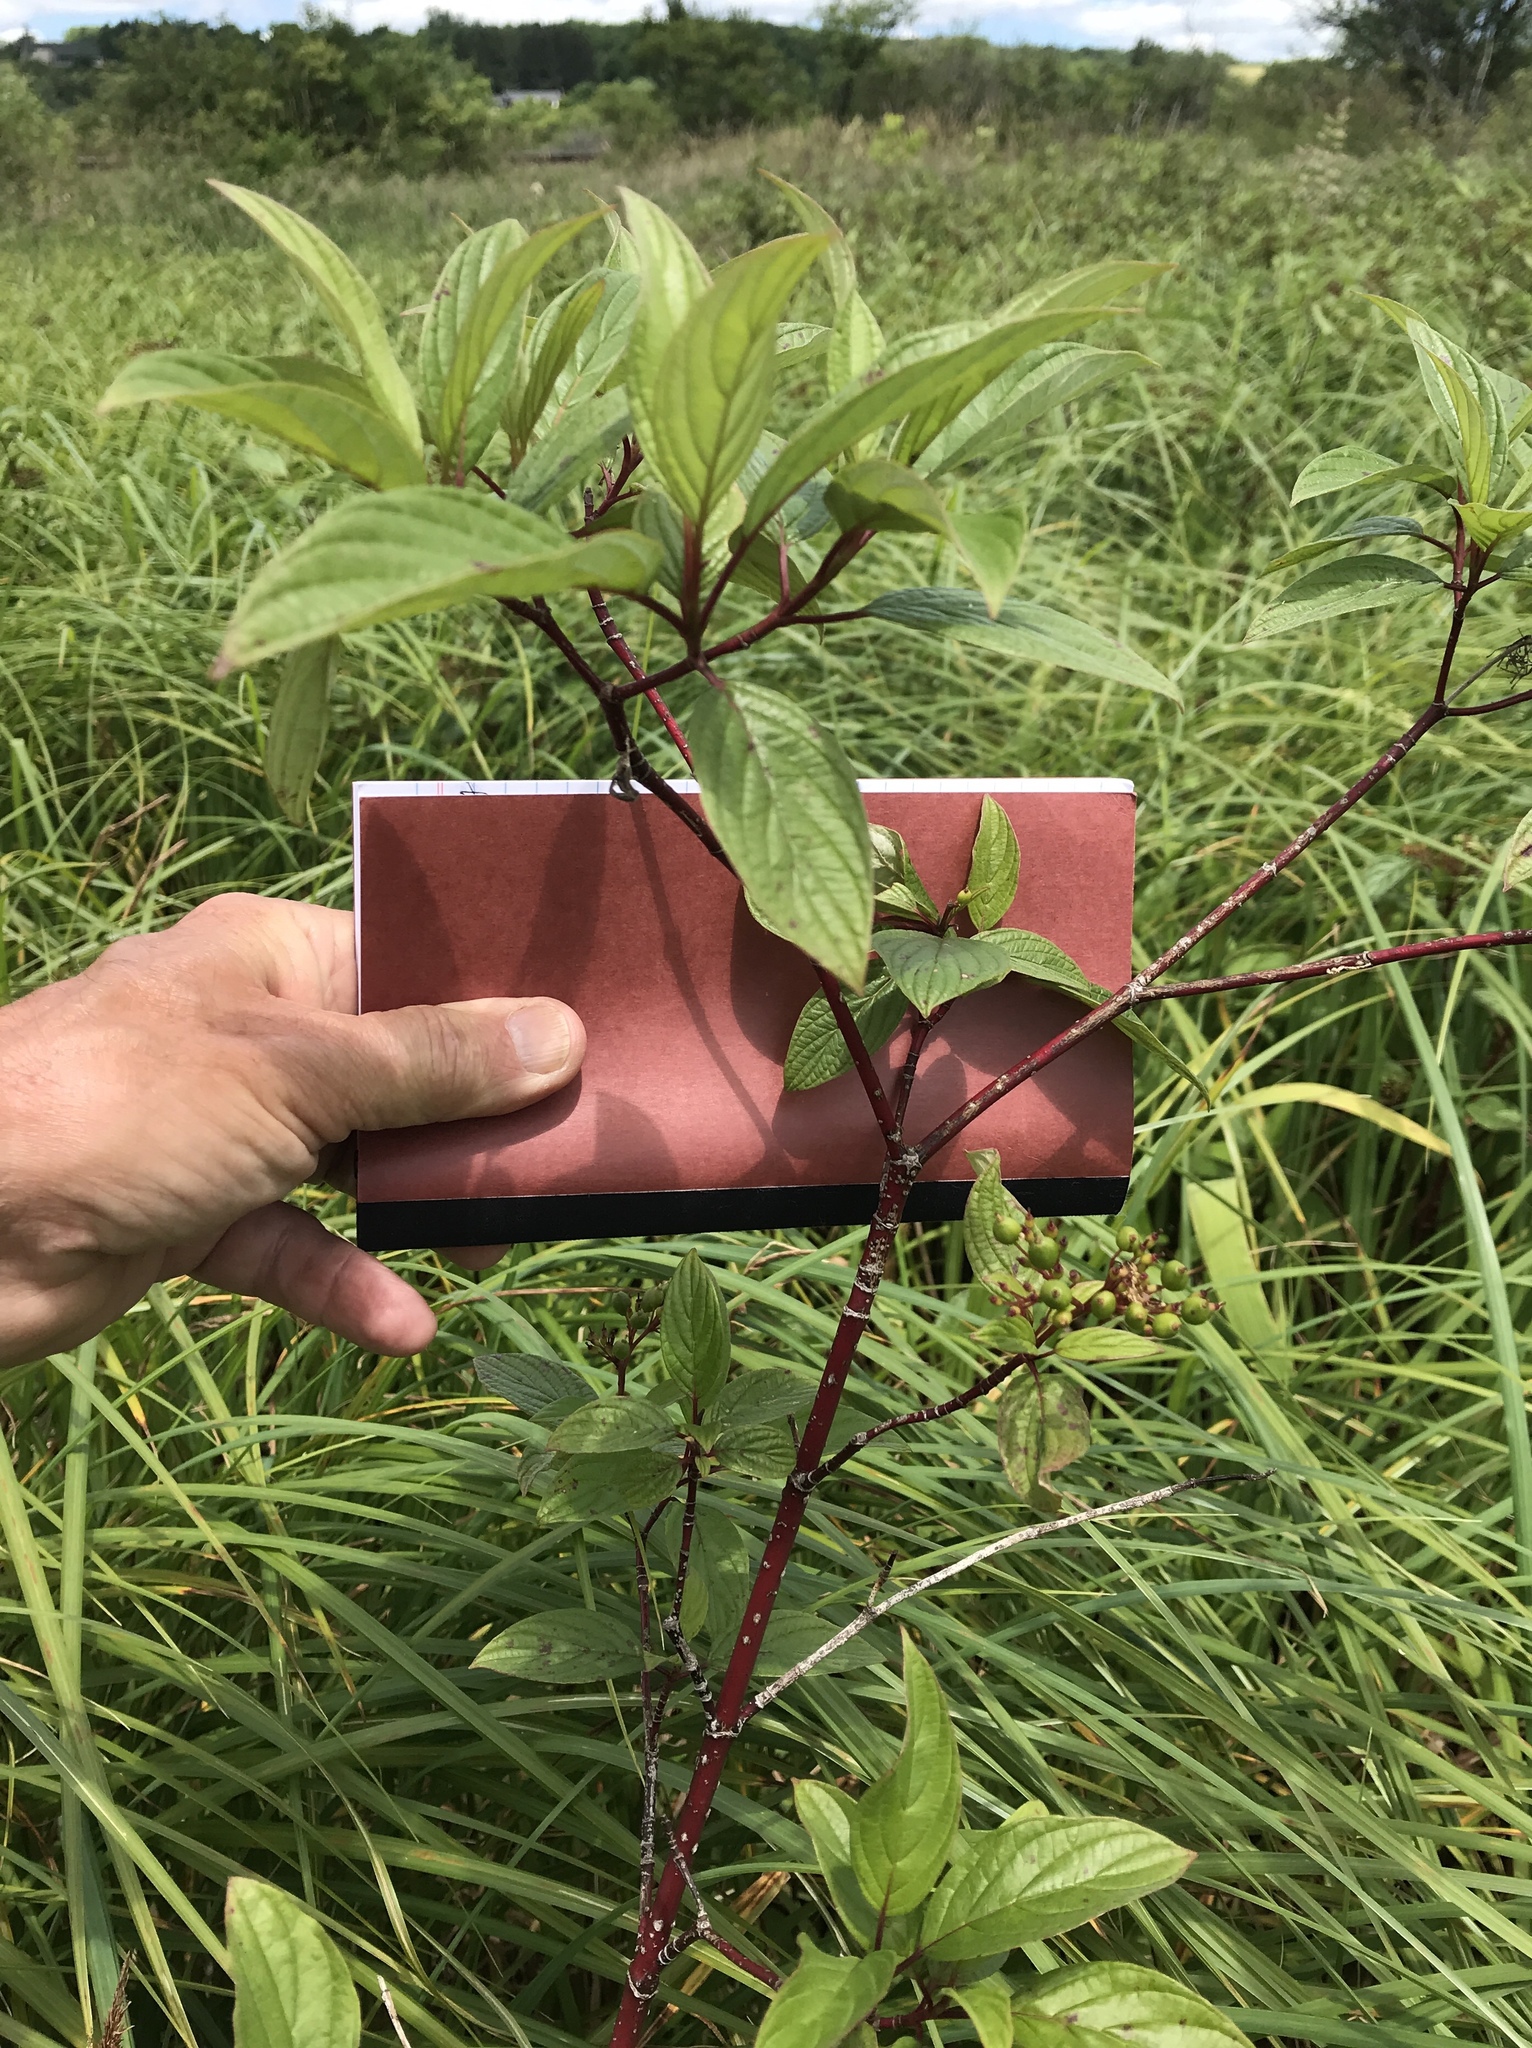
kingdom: Plantae
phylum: Tracheophyta
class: Magnoliopsida
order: Cornales
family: Cornaceae
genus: Cornus
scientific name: Cornus sericea
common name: Red-osier dogwood
